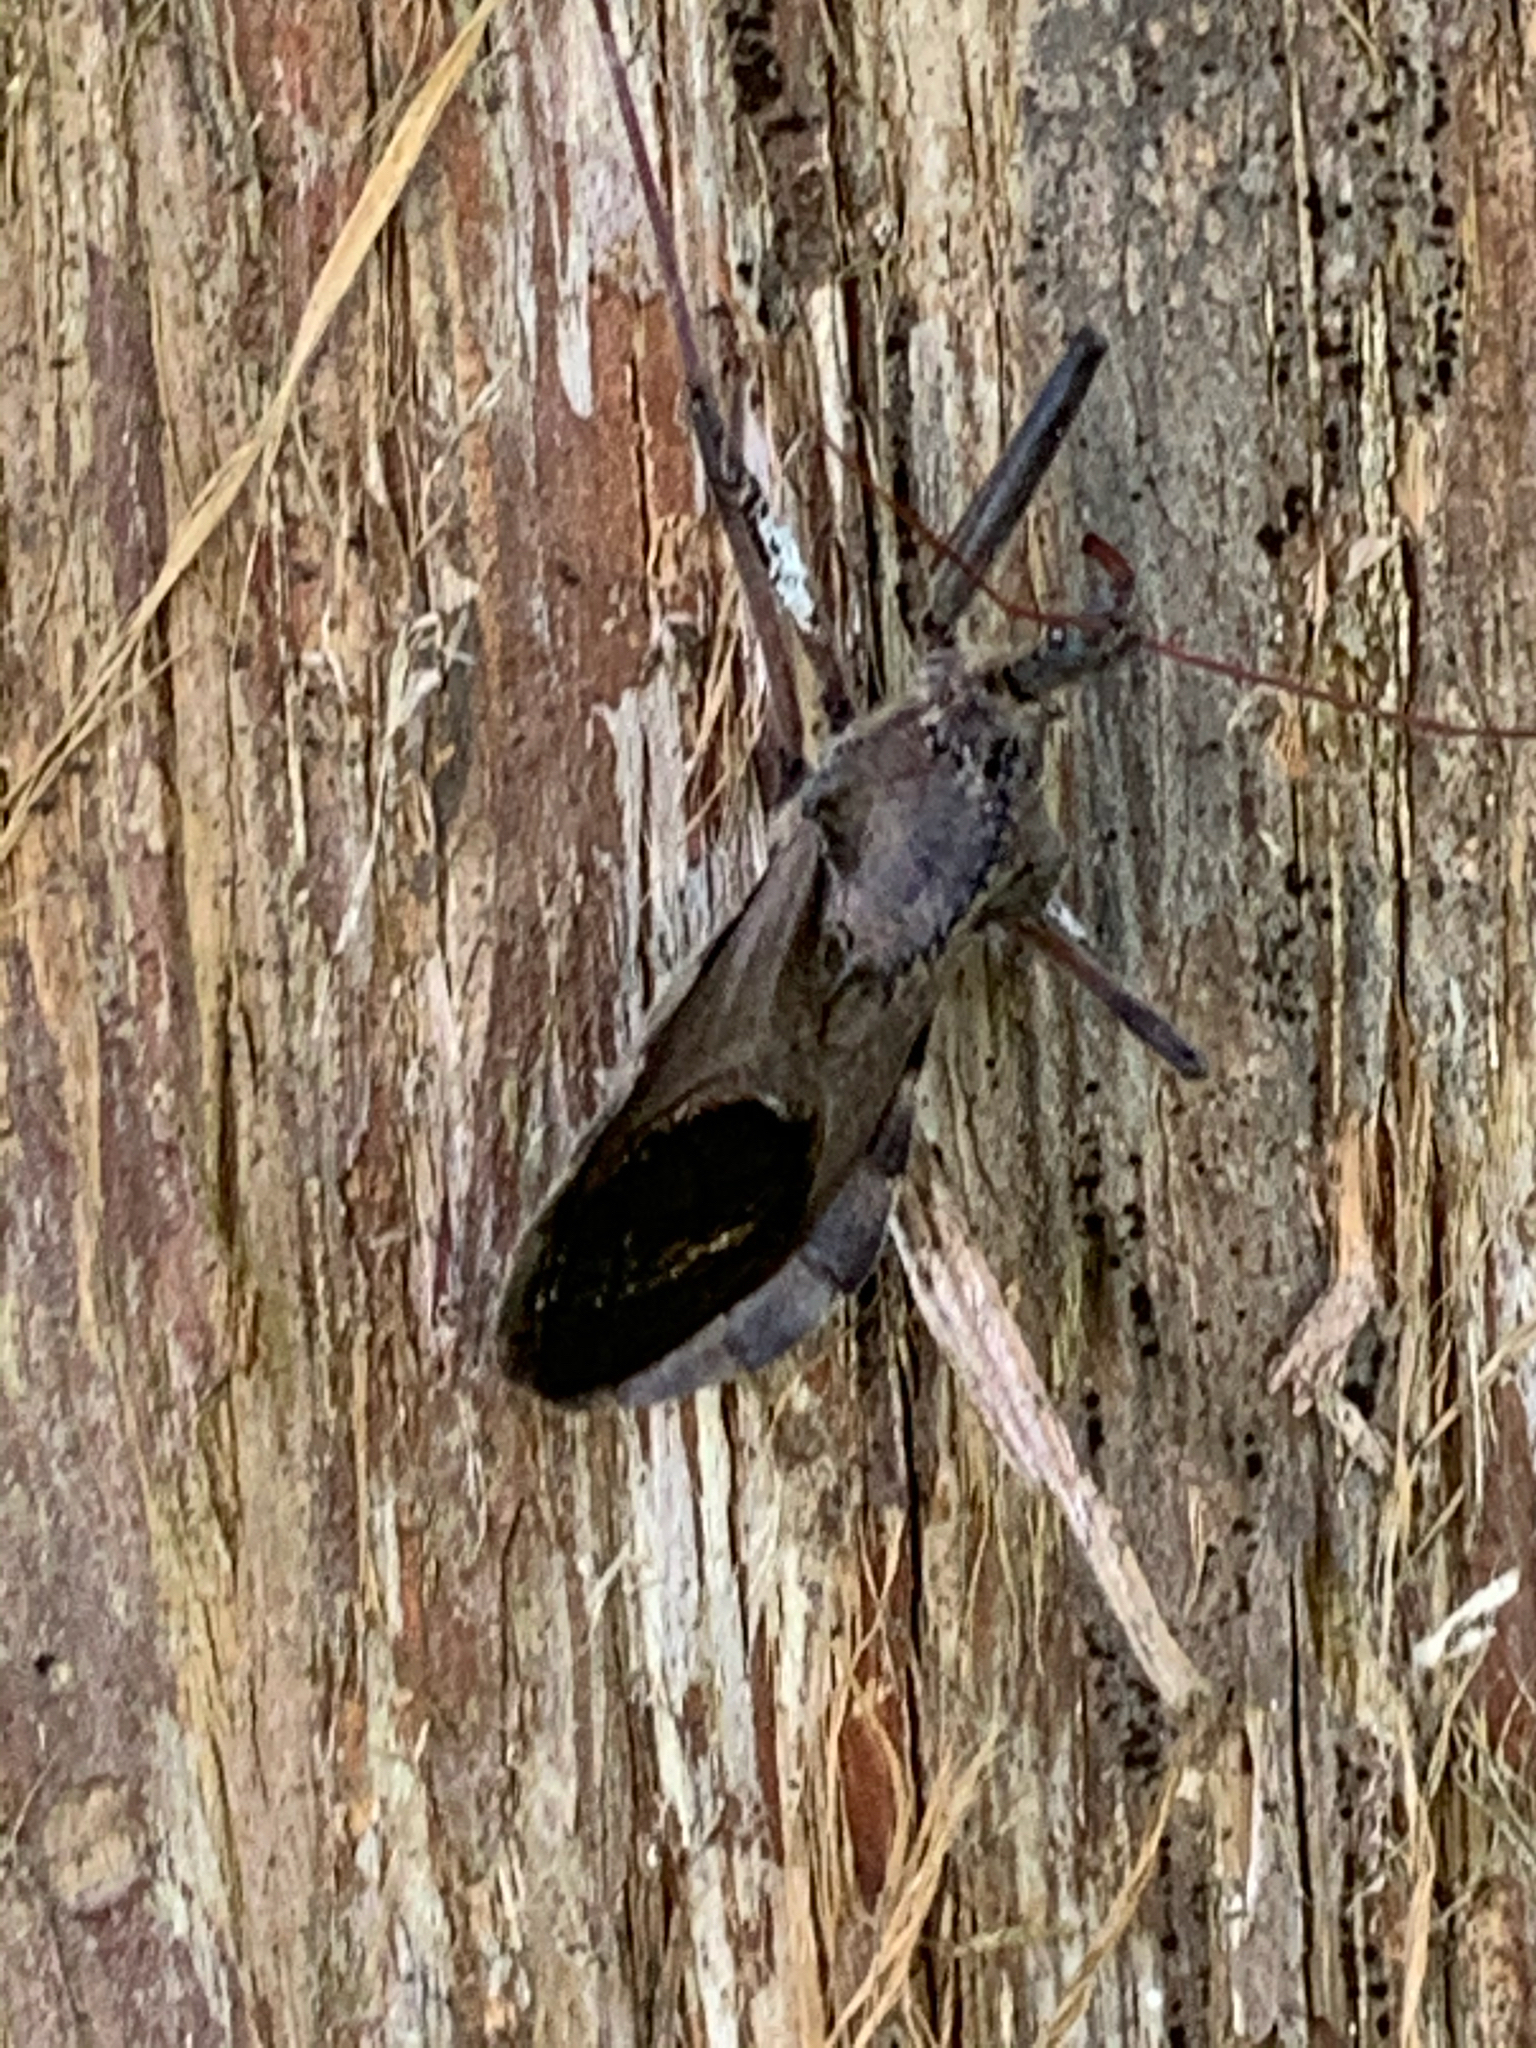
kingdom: Animalia
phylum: Arthropoda
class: Insecta
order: Hemiptera
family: Reduviidae
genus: Arilus
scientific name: Arilus cristatus
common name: North american wheel bug
